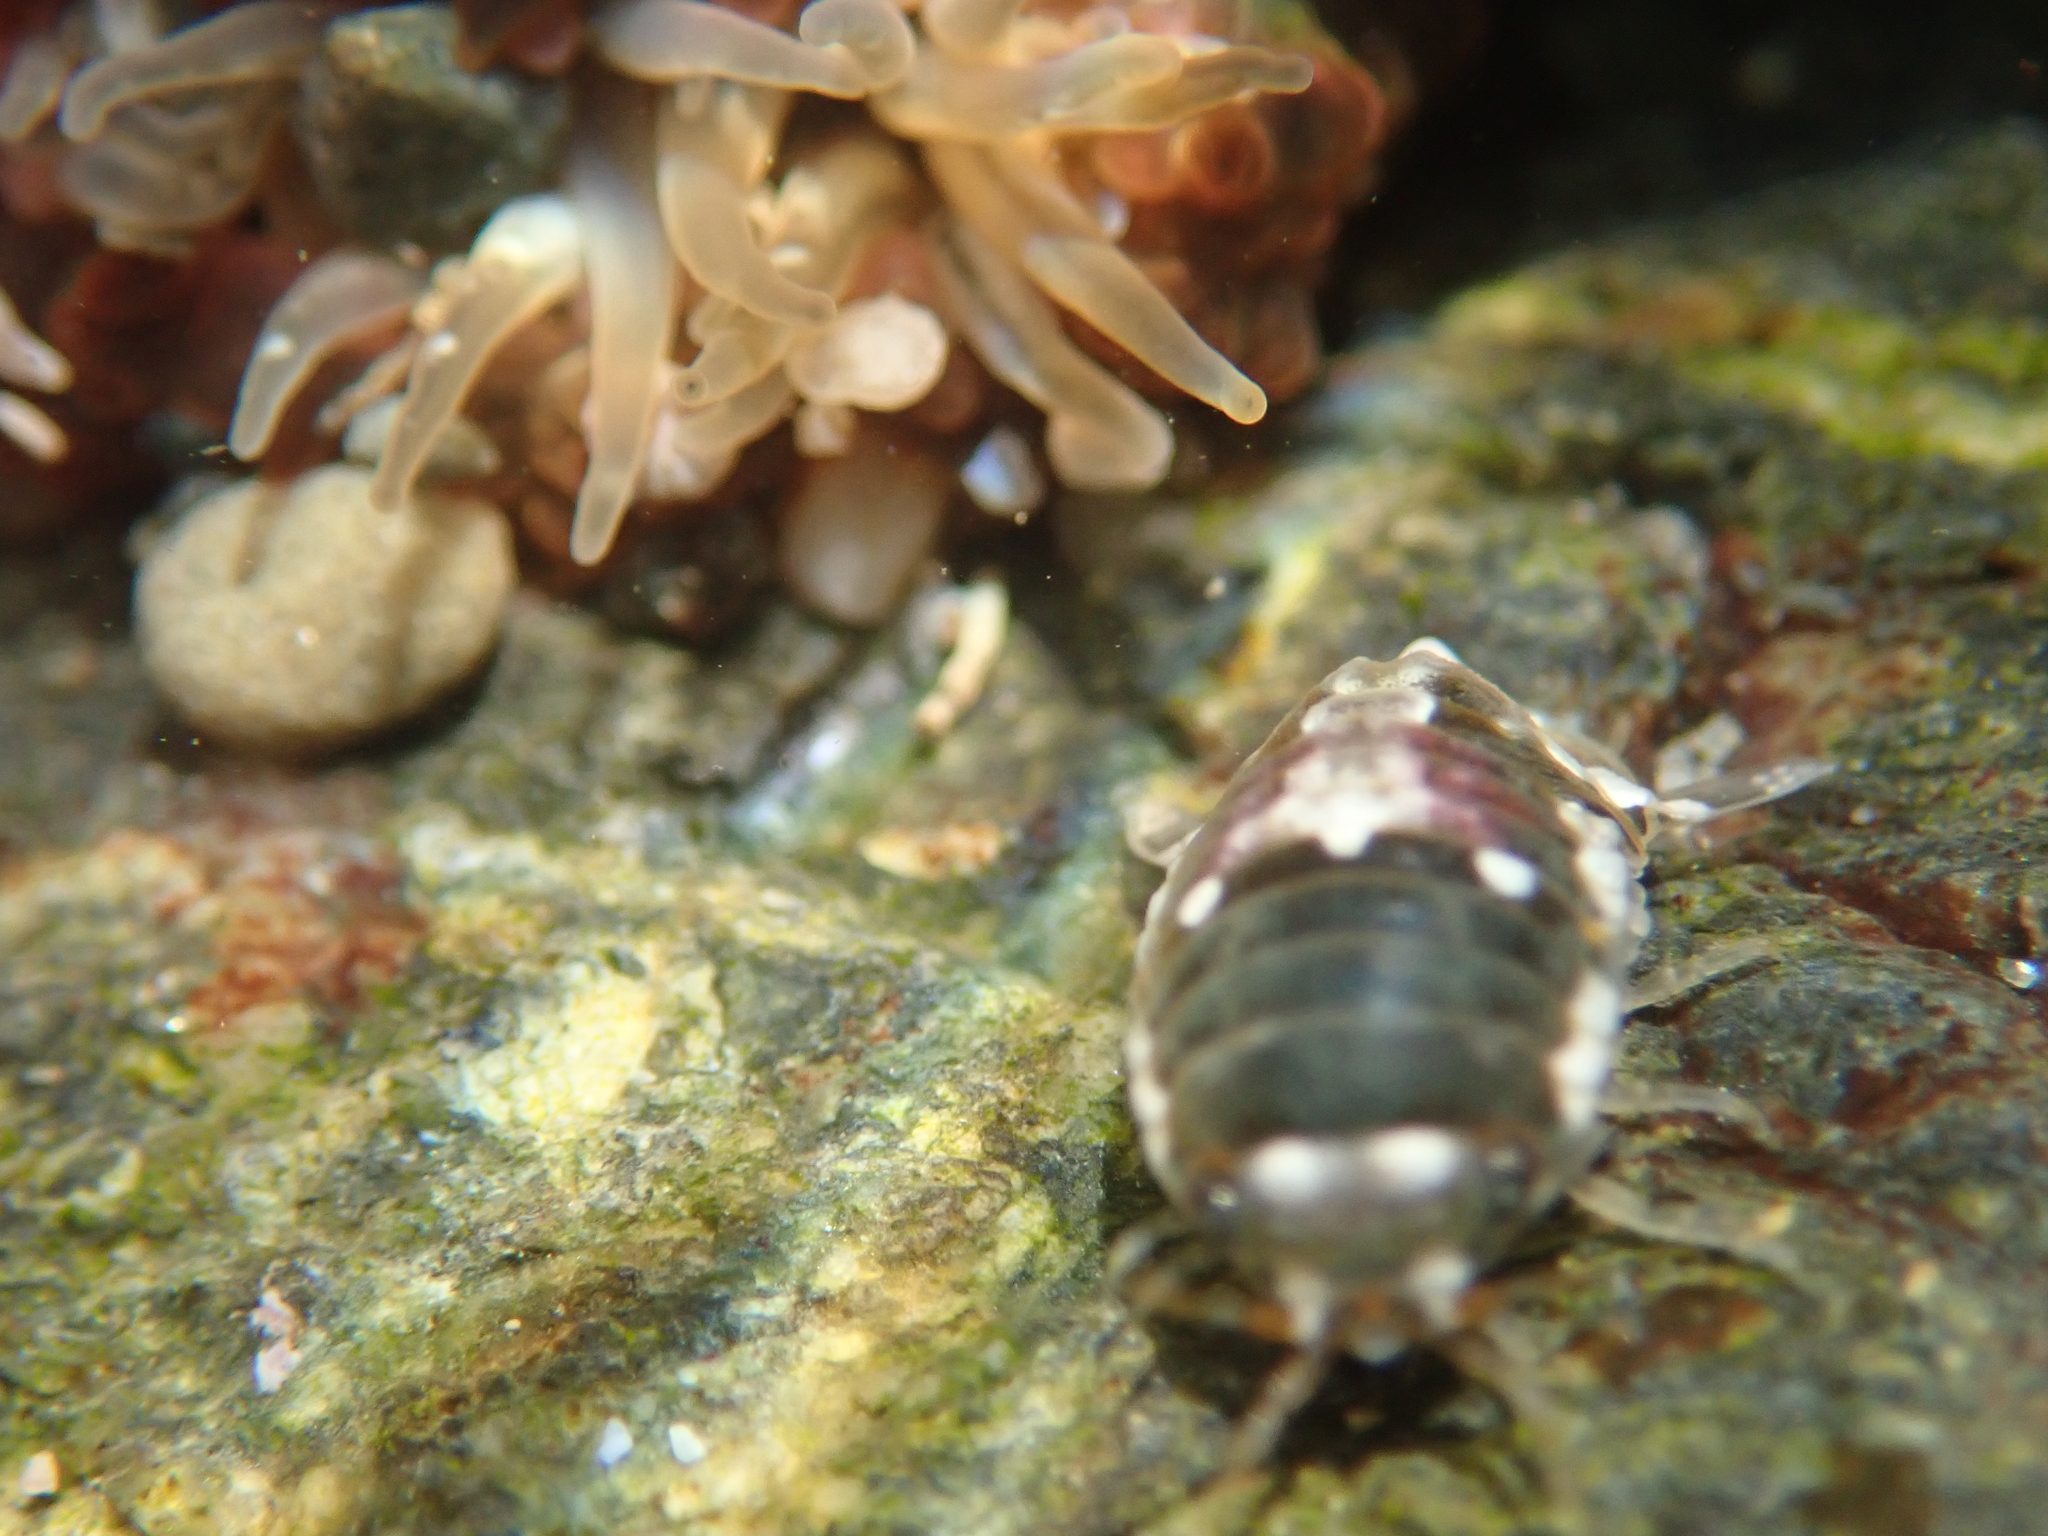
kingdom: Animalia
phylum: Arthropoda
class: Malacostraca
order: Isopoda
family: Sphaeromatidae
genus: Isocladus
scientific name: Isocladus armatus
